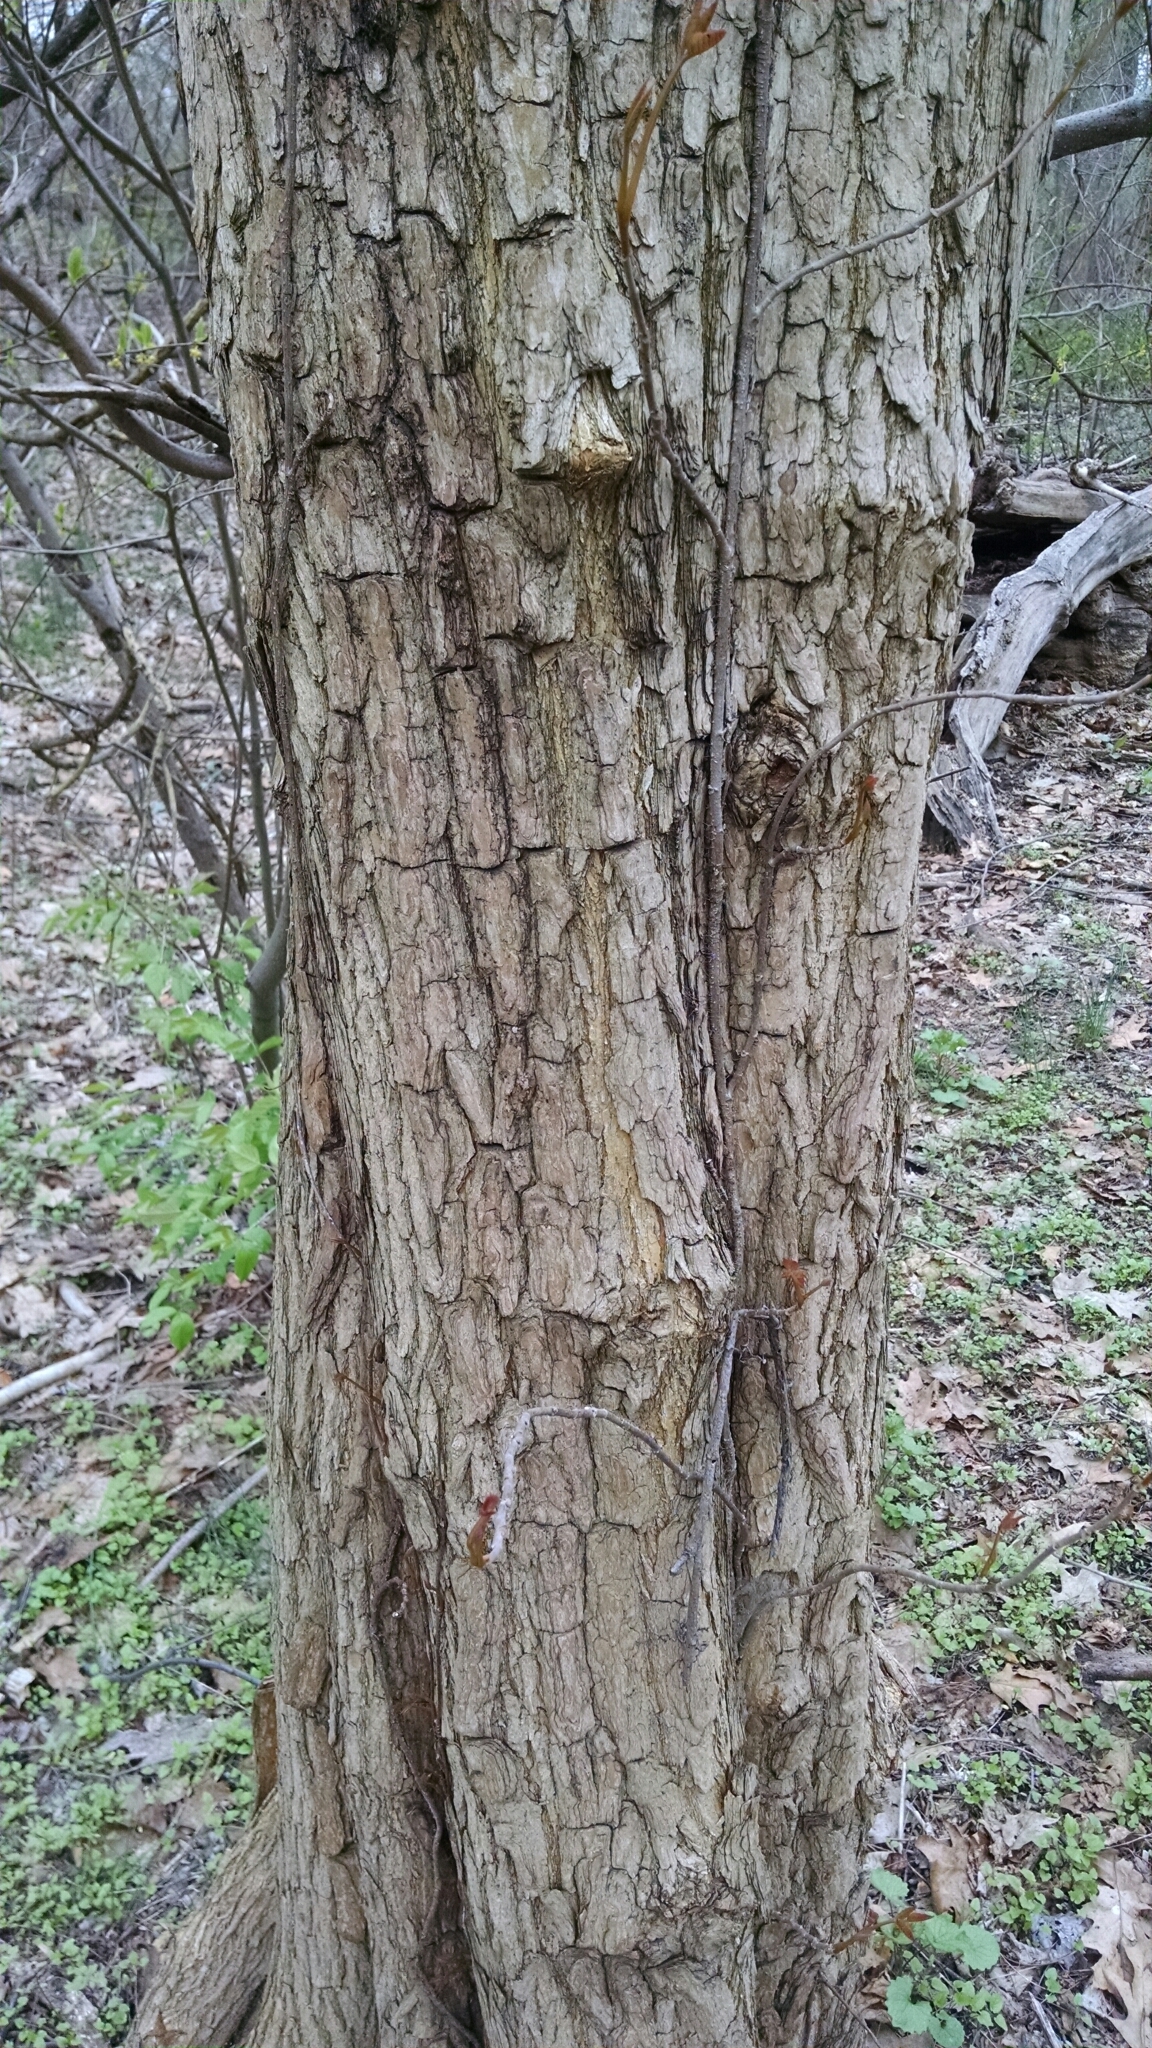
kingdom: Plantae
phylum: Tracheophyta
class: Magnoliopsida
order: Rosales
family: Moraceae
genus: Maclura
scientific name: Maclura pomifera
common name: Osage-orange
